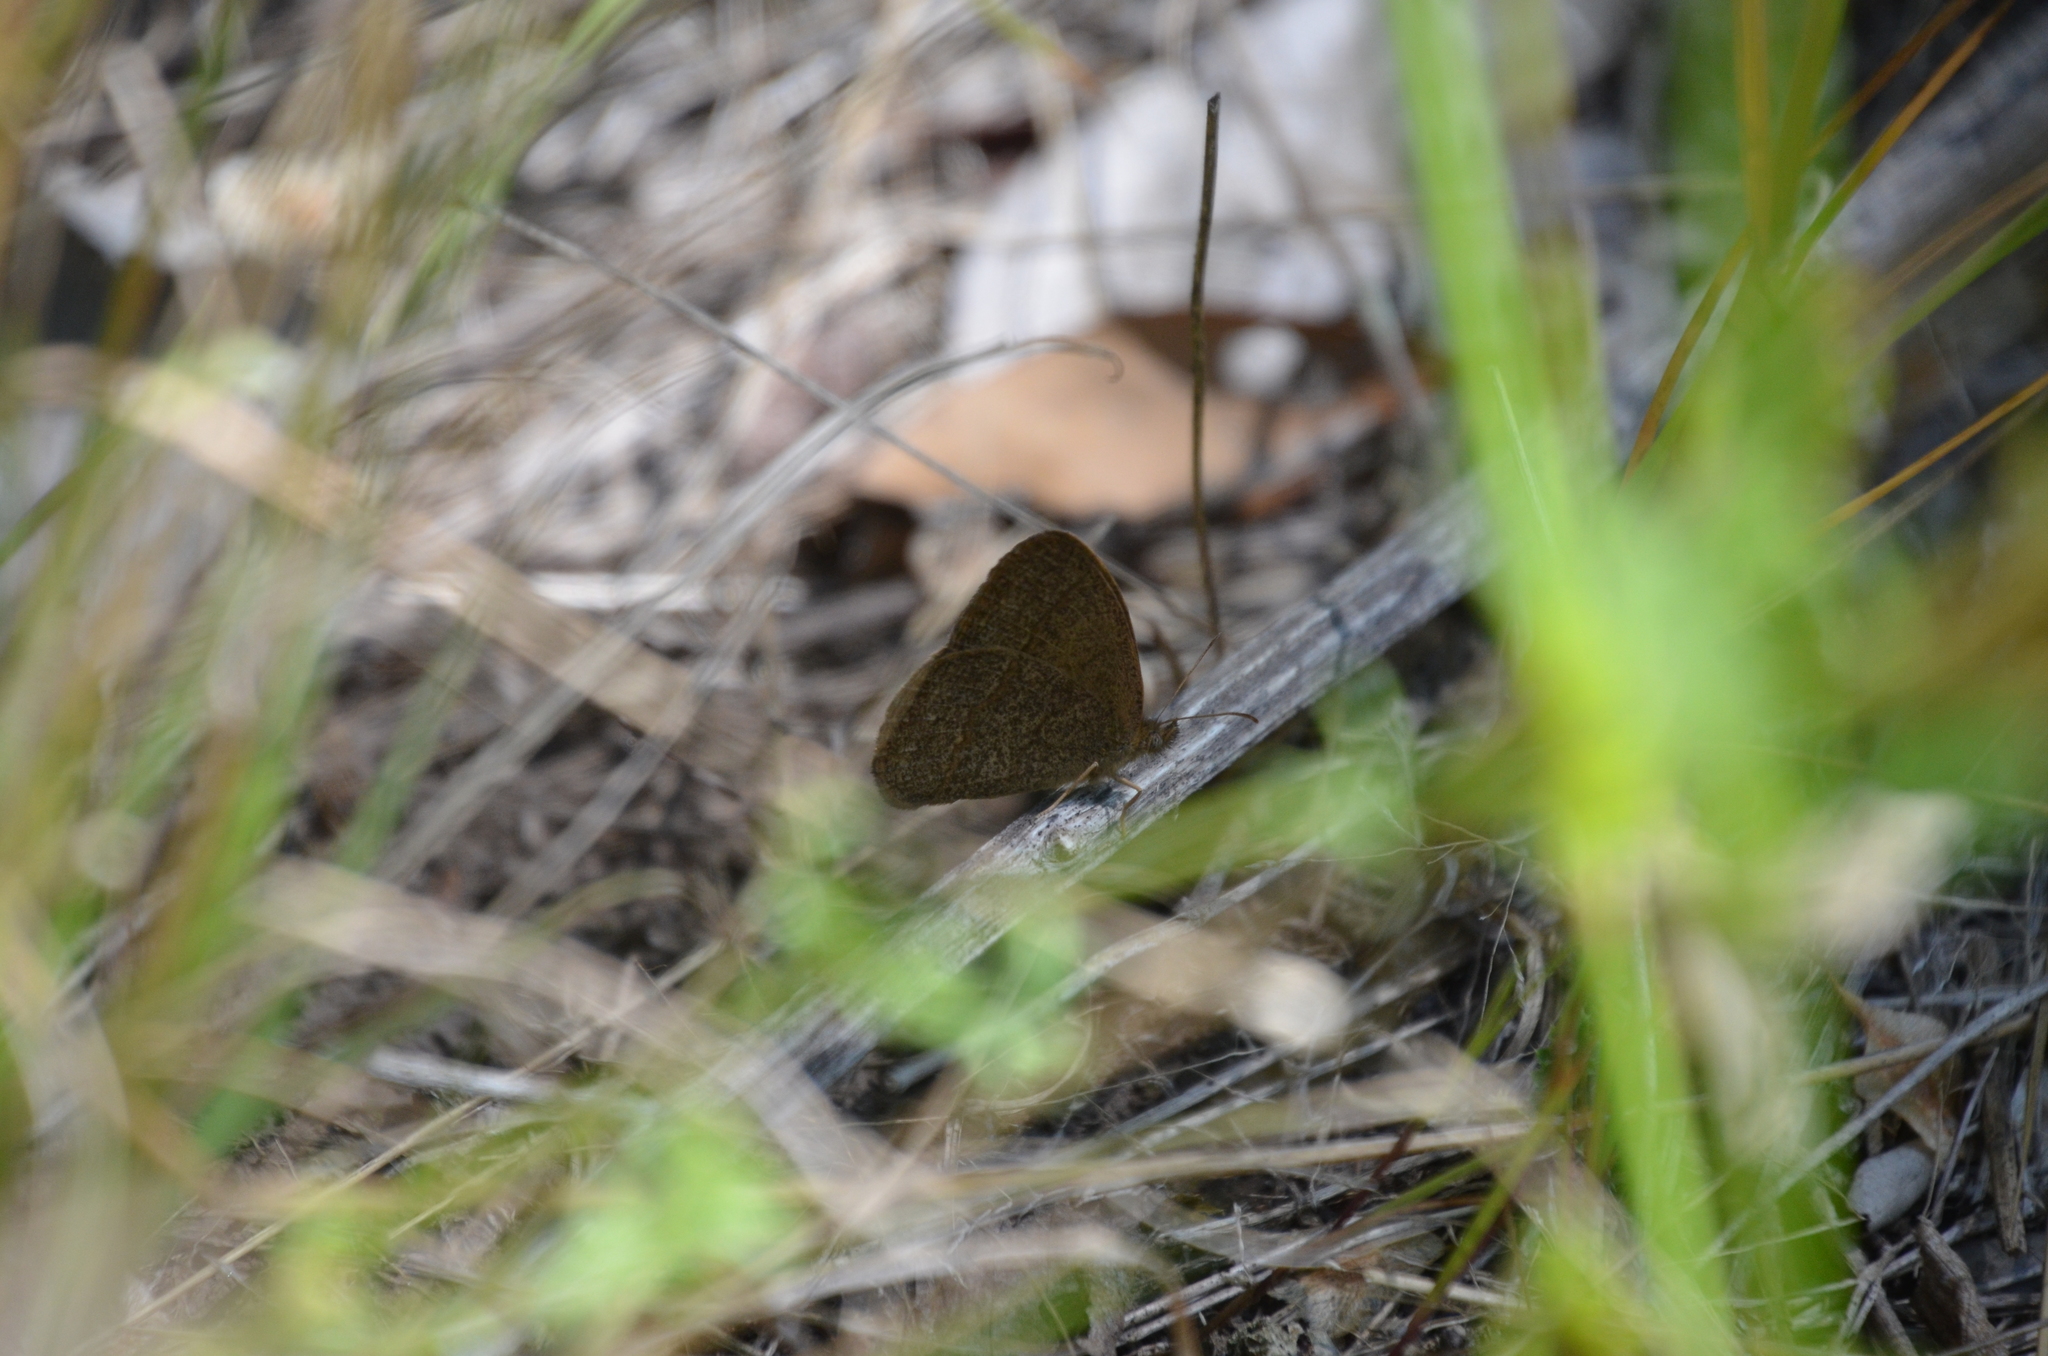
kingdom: Animalia
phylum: Arthropoda
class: Insecta
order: Lepidoptera
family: Nymphalidae
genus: Yphthimoides
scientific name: Yphthimoides celmis
